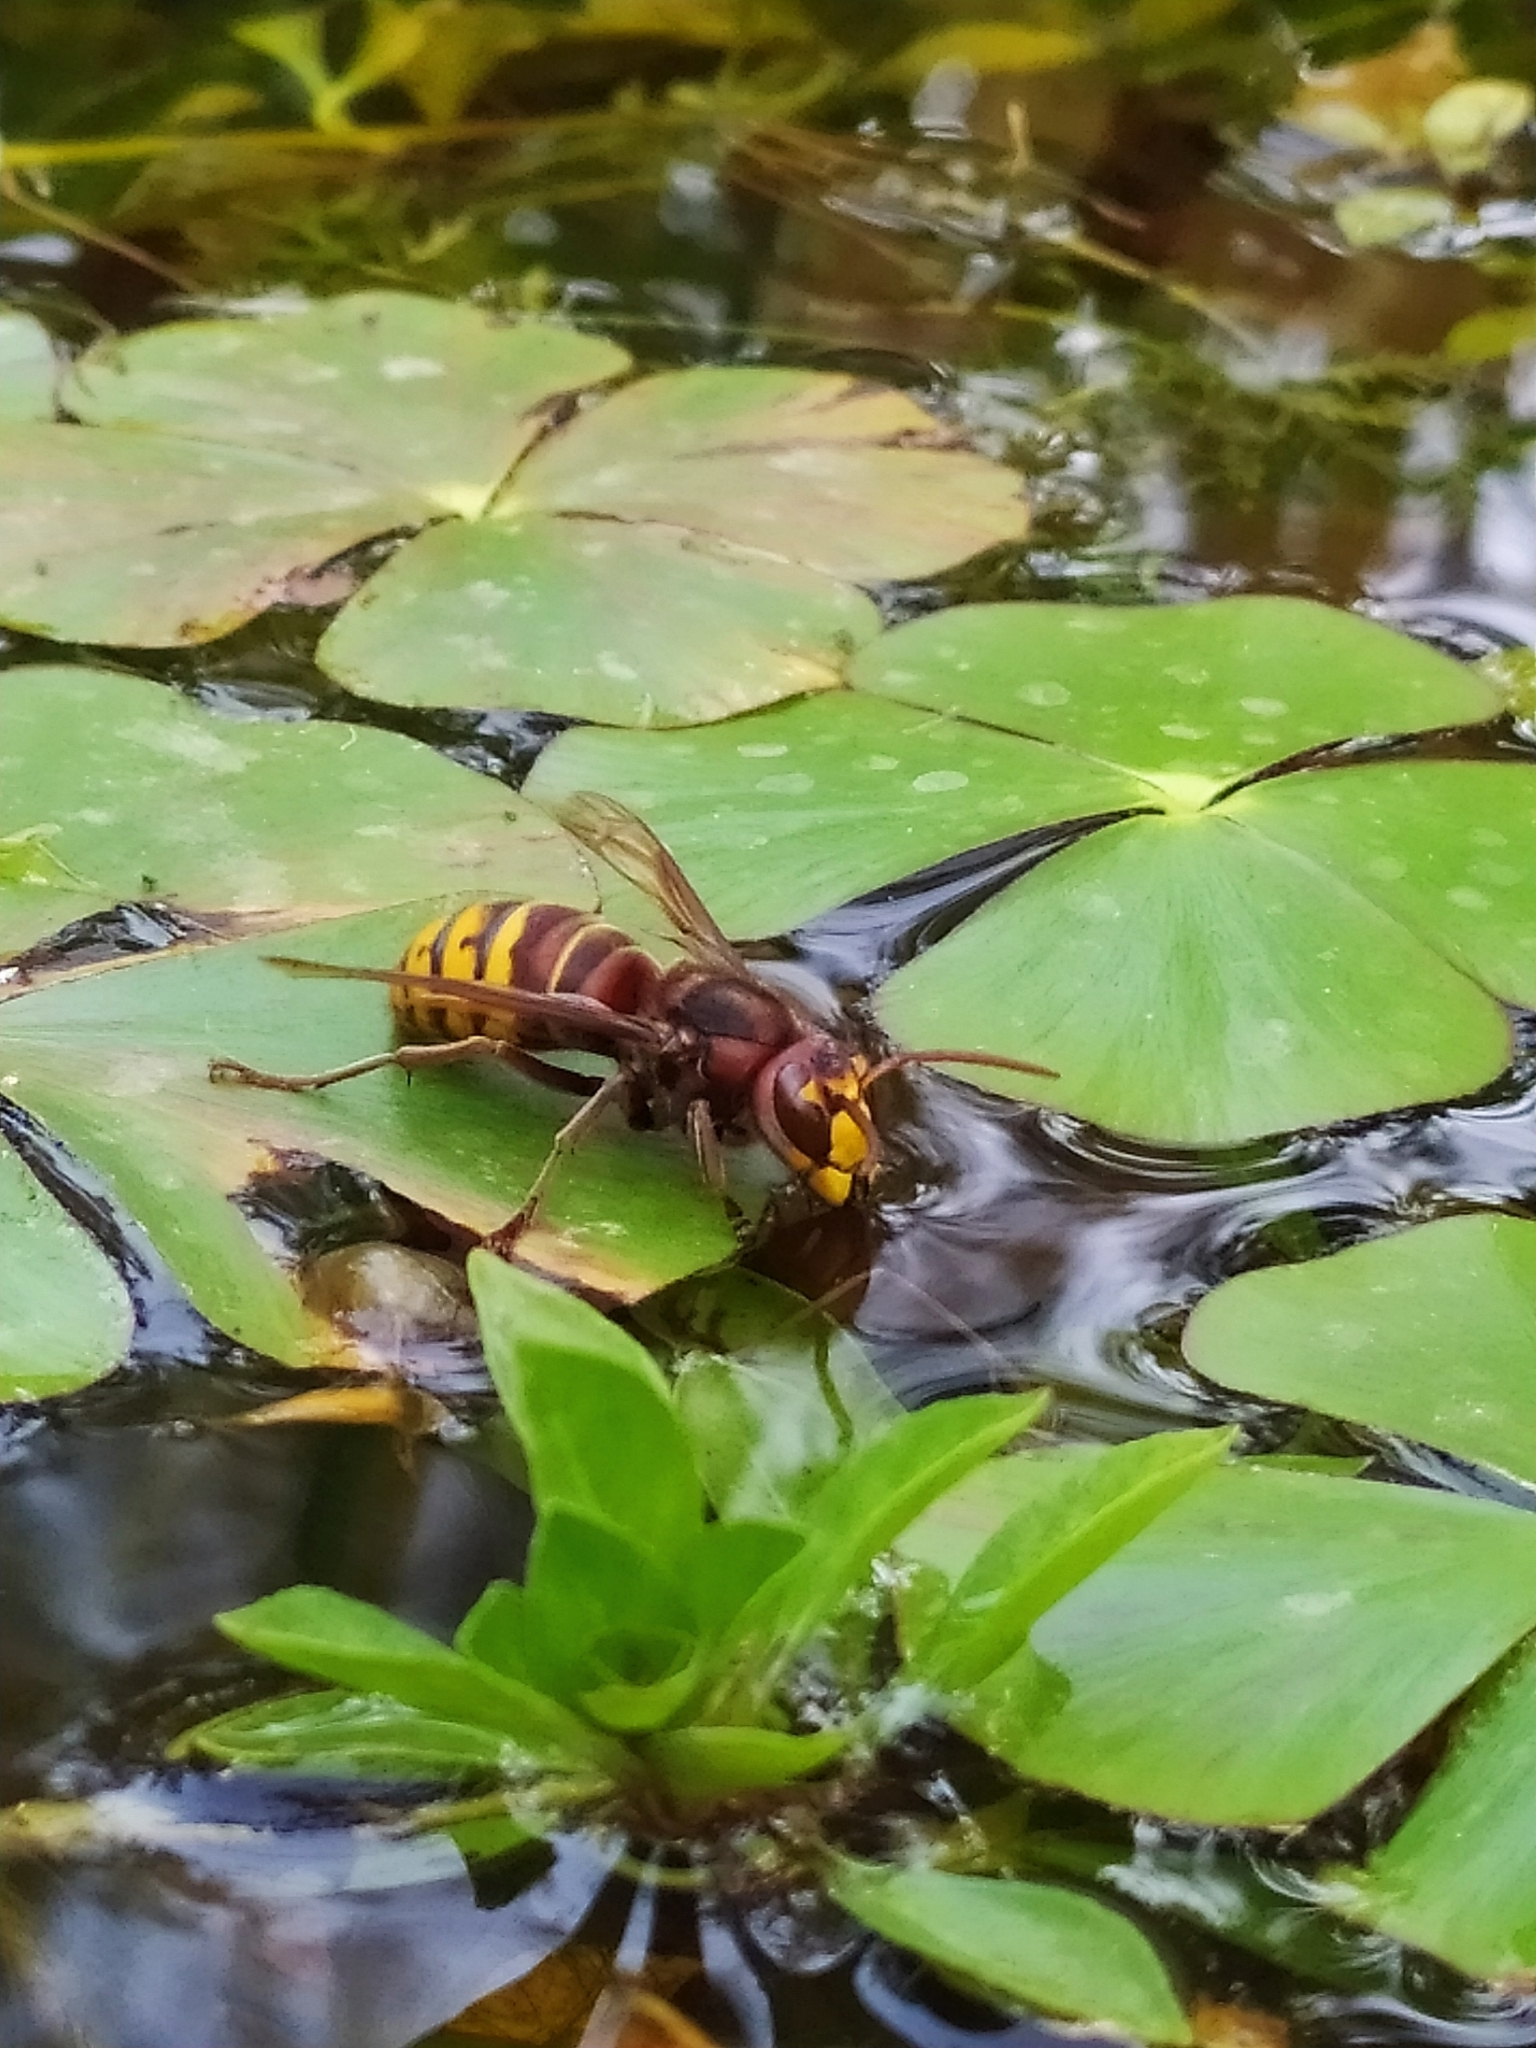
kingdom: Animalia
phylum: Arthropoda
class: Insecta
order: Hymenoptera
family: Vespidae
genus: Vespa
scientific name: Vespa crabro
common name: Hornet
